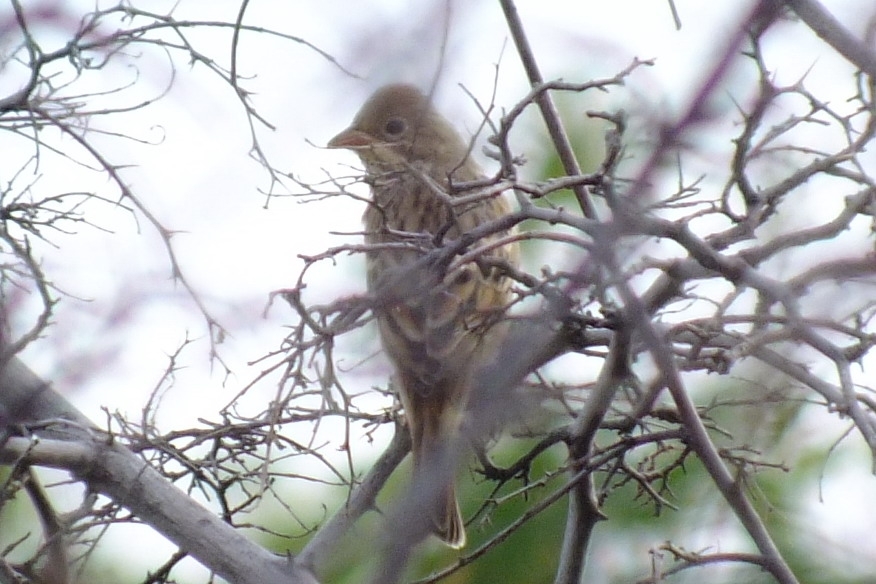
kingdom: Animalia
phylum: Chordata
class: Aves
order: Passeriformes
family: Emberizidae
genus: Emberiza
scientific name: Emberiza hortulana
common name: Ortolan bunting
